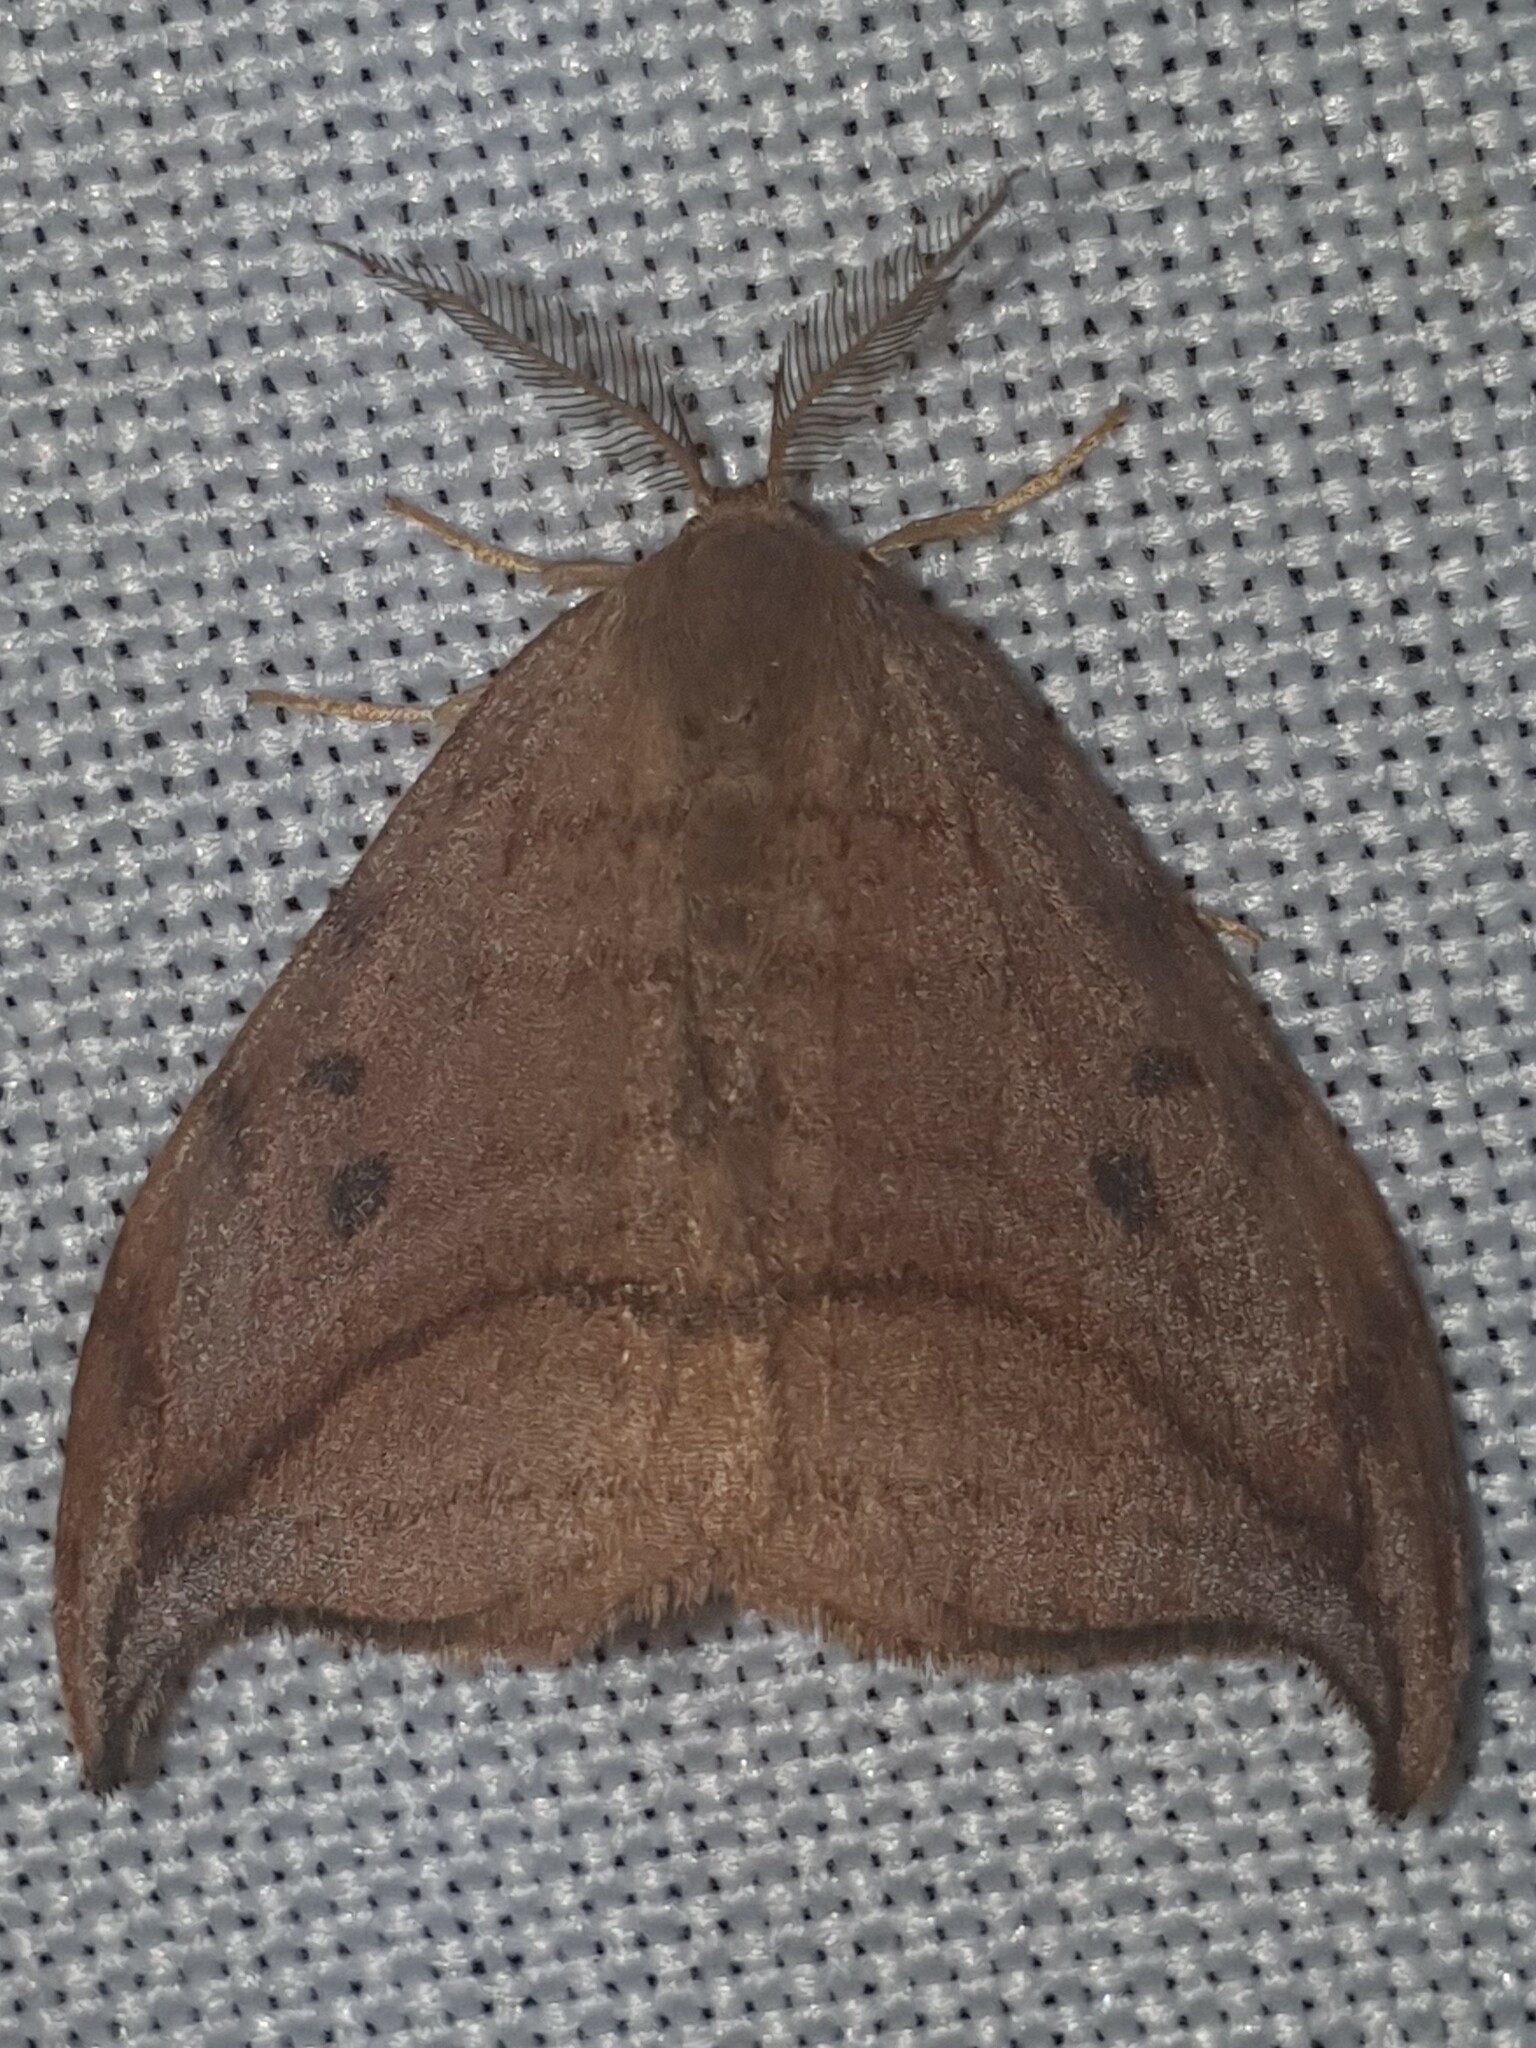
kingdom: Animalia
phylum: Arthropoda
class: Insecta
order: Lepidoptera
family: Drepanidae
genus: Drepana
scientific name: Drepana curvatula
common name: Dusky hook-tip
